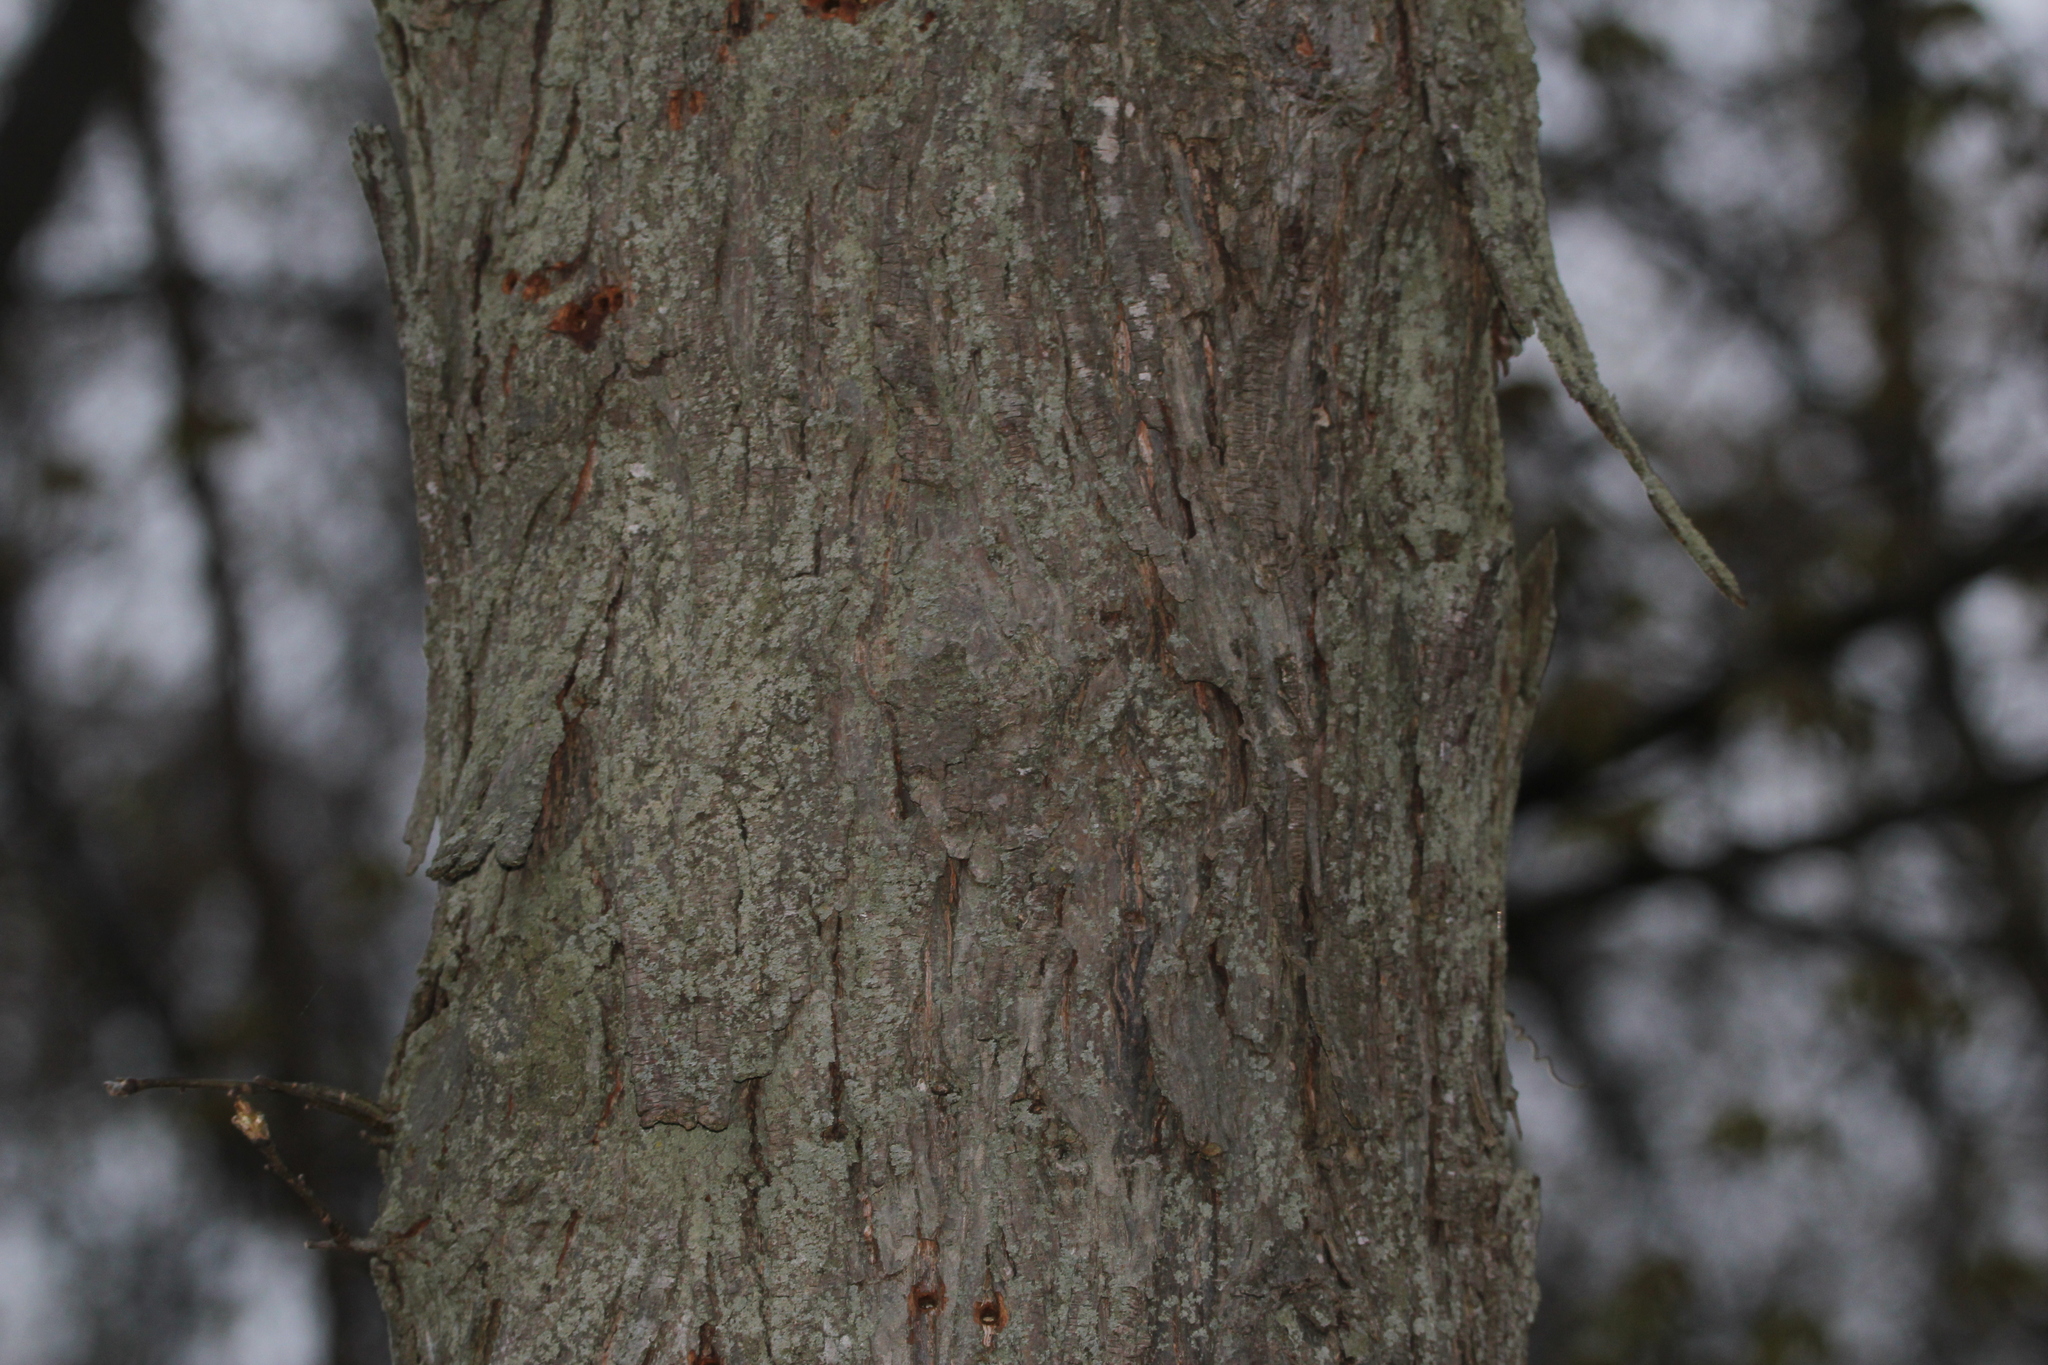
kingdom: Plantae
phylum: Tracheophyta
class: Magnoliopsida
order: Fagales
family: Juglandaceae
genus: Carya
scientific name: Carya ovata
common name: Shagbark hickory
